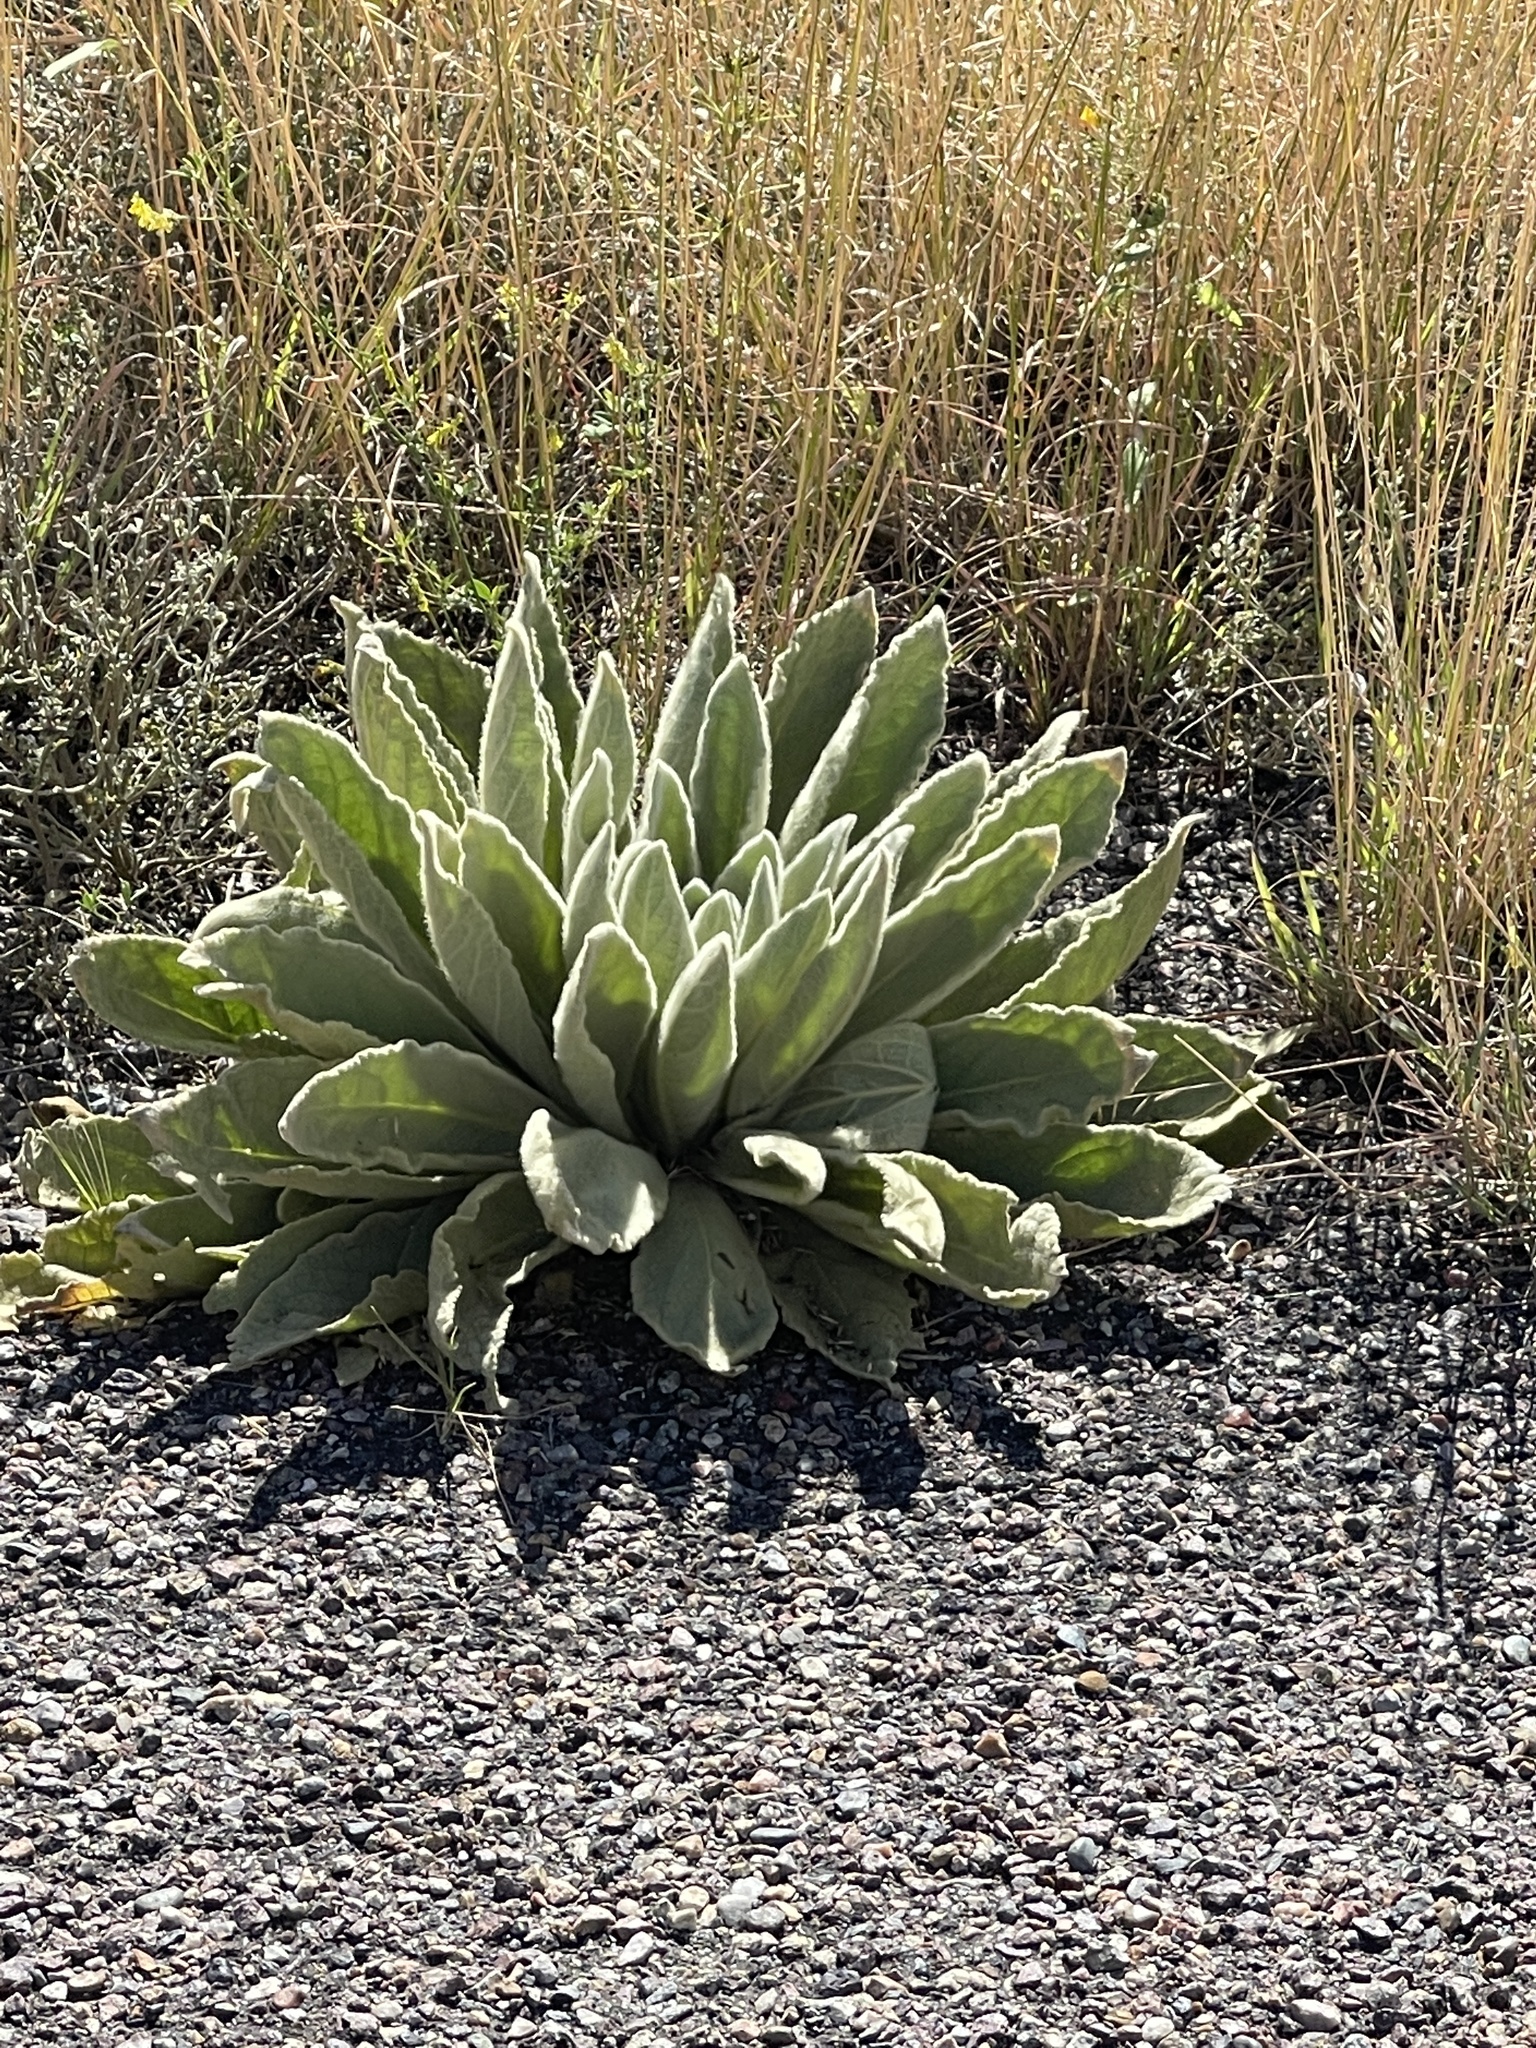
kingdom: Plantae
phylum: Tracheophyta
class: Magnoliopsida
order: Lamiales
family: Scrophulariaceae
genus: Verbascum
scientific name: Verbascum thapsus
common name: Common mullein
